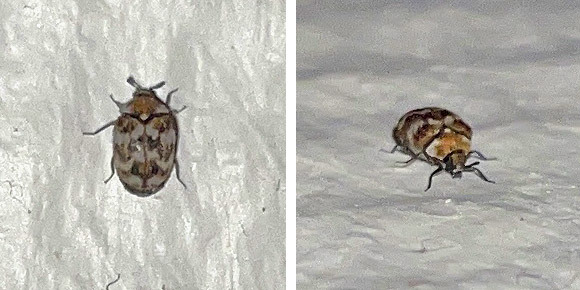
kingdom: Animalia
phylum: Arthropoda
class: Insecta
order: Coleoptera
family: Dermestidae
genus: Anthrenus
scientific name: Anthrenus verbasci
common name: Varied carpet beetle
